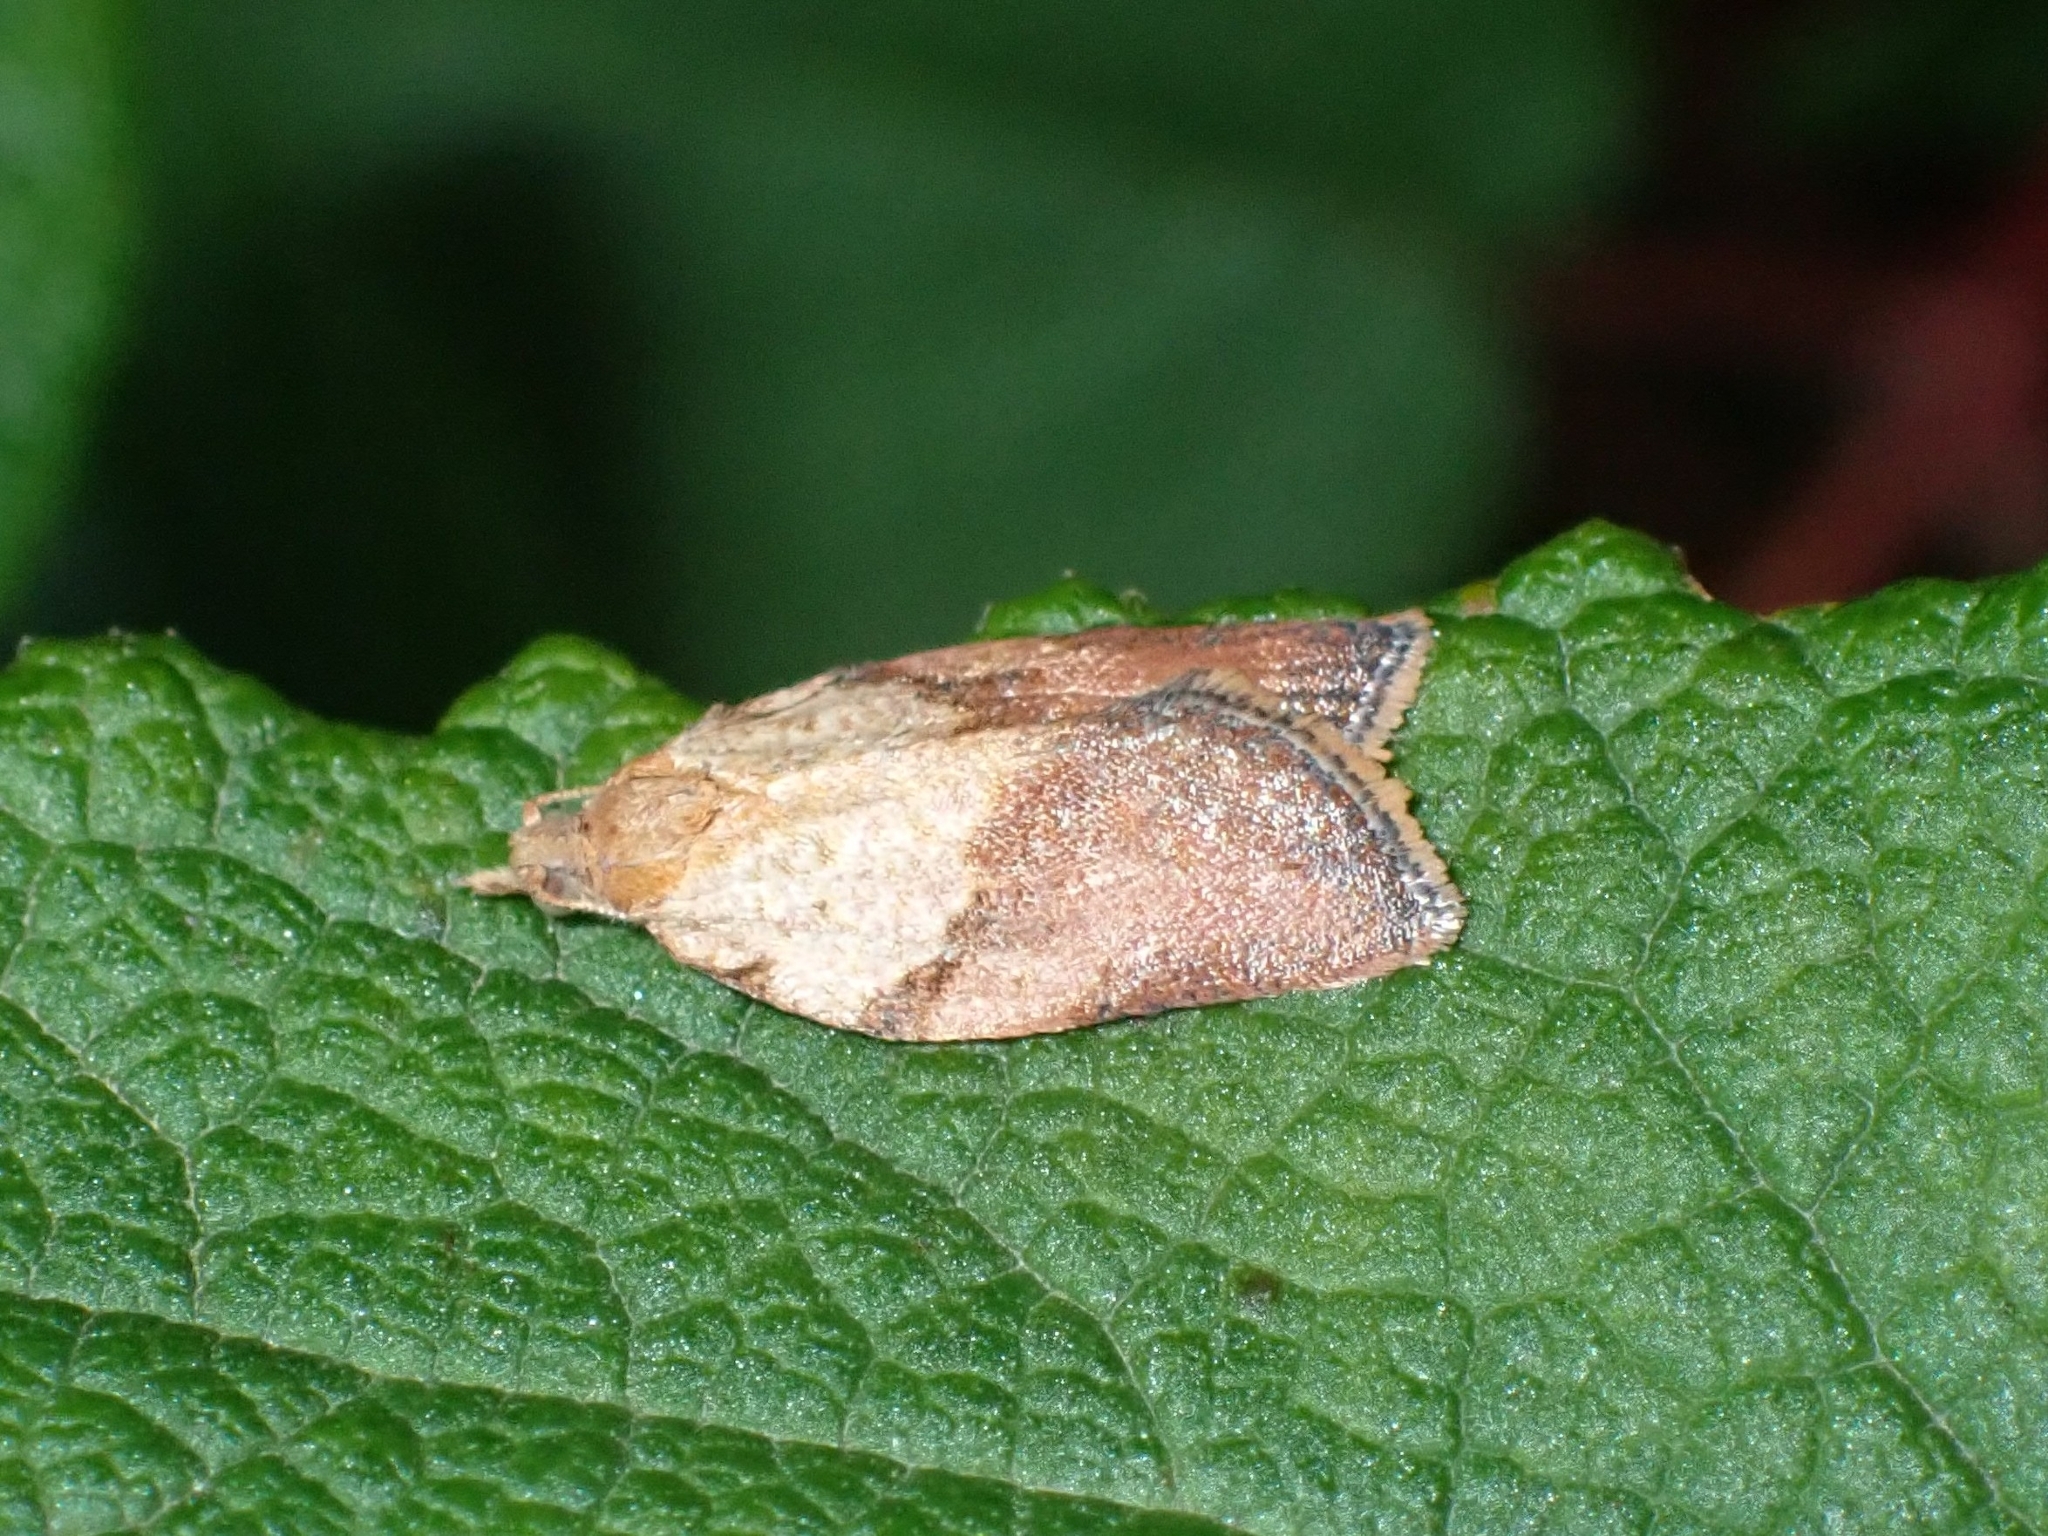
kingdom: Animalia
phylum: Arthropoda
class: Insecta
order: Lepidoptera
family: Tortricidae
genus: Epiphyas
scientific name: Epiphyas postvittana
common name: Light brown apple moth
